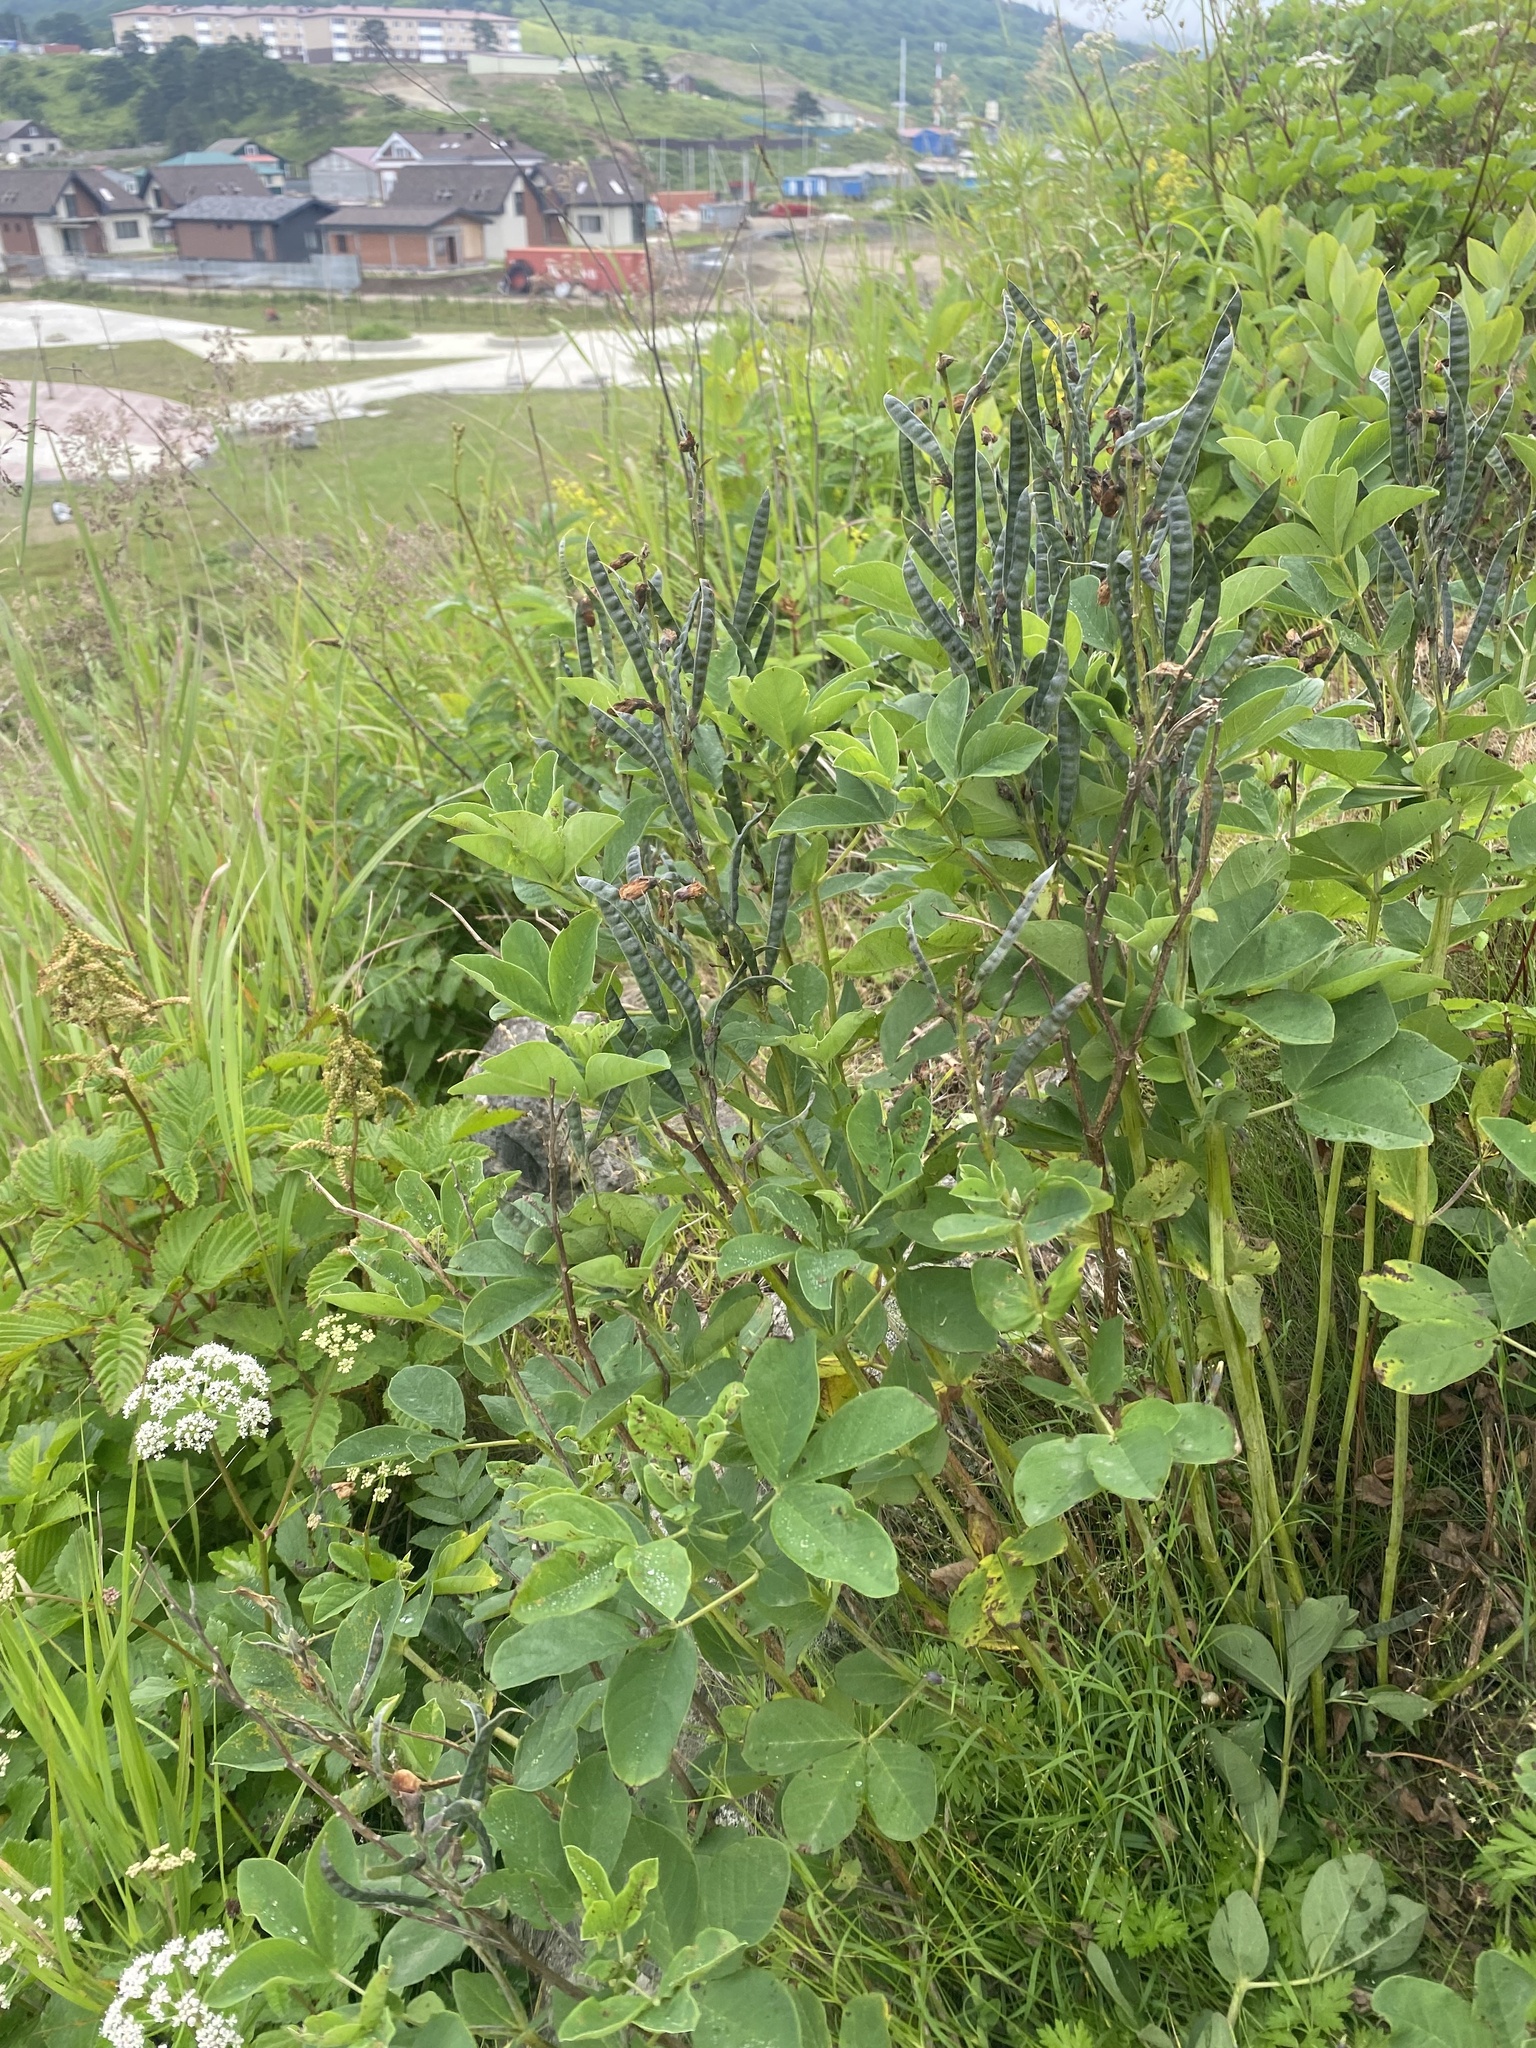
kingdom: Plantae
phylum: Tracheophyta
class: Magnoliopsida
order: Fabales
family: Fabaceae
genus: Thermopsis
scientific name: Thermopsis lanceolata
